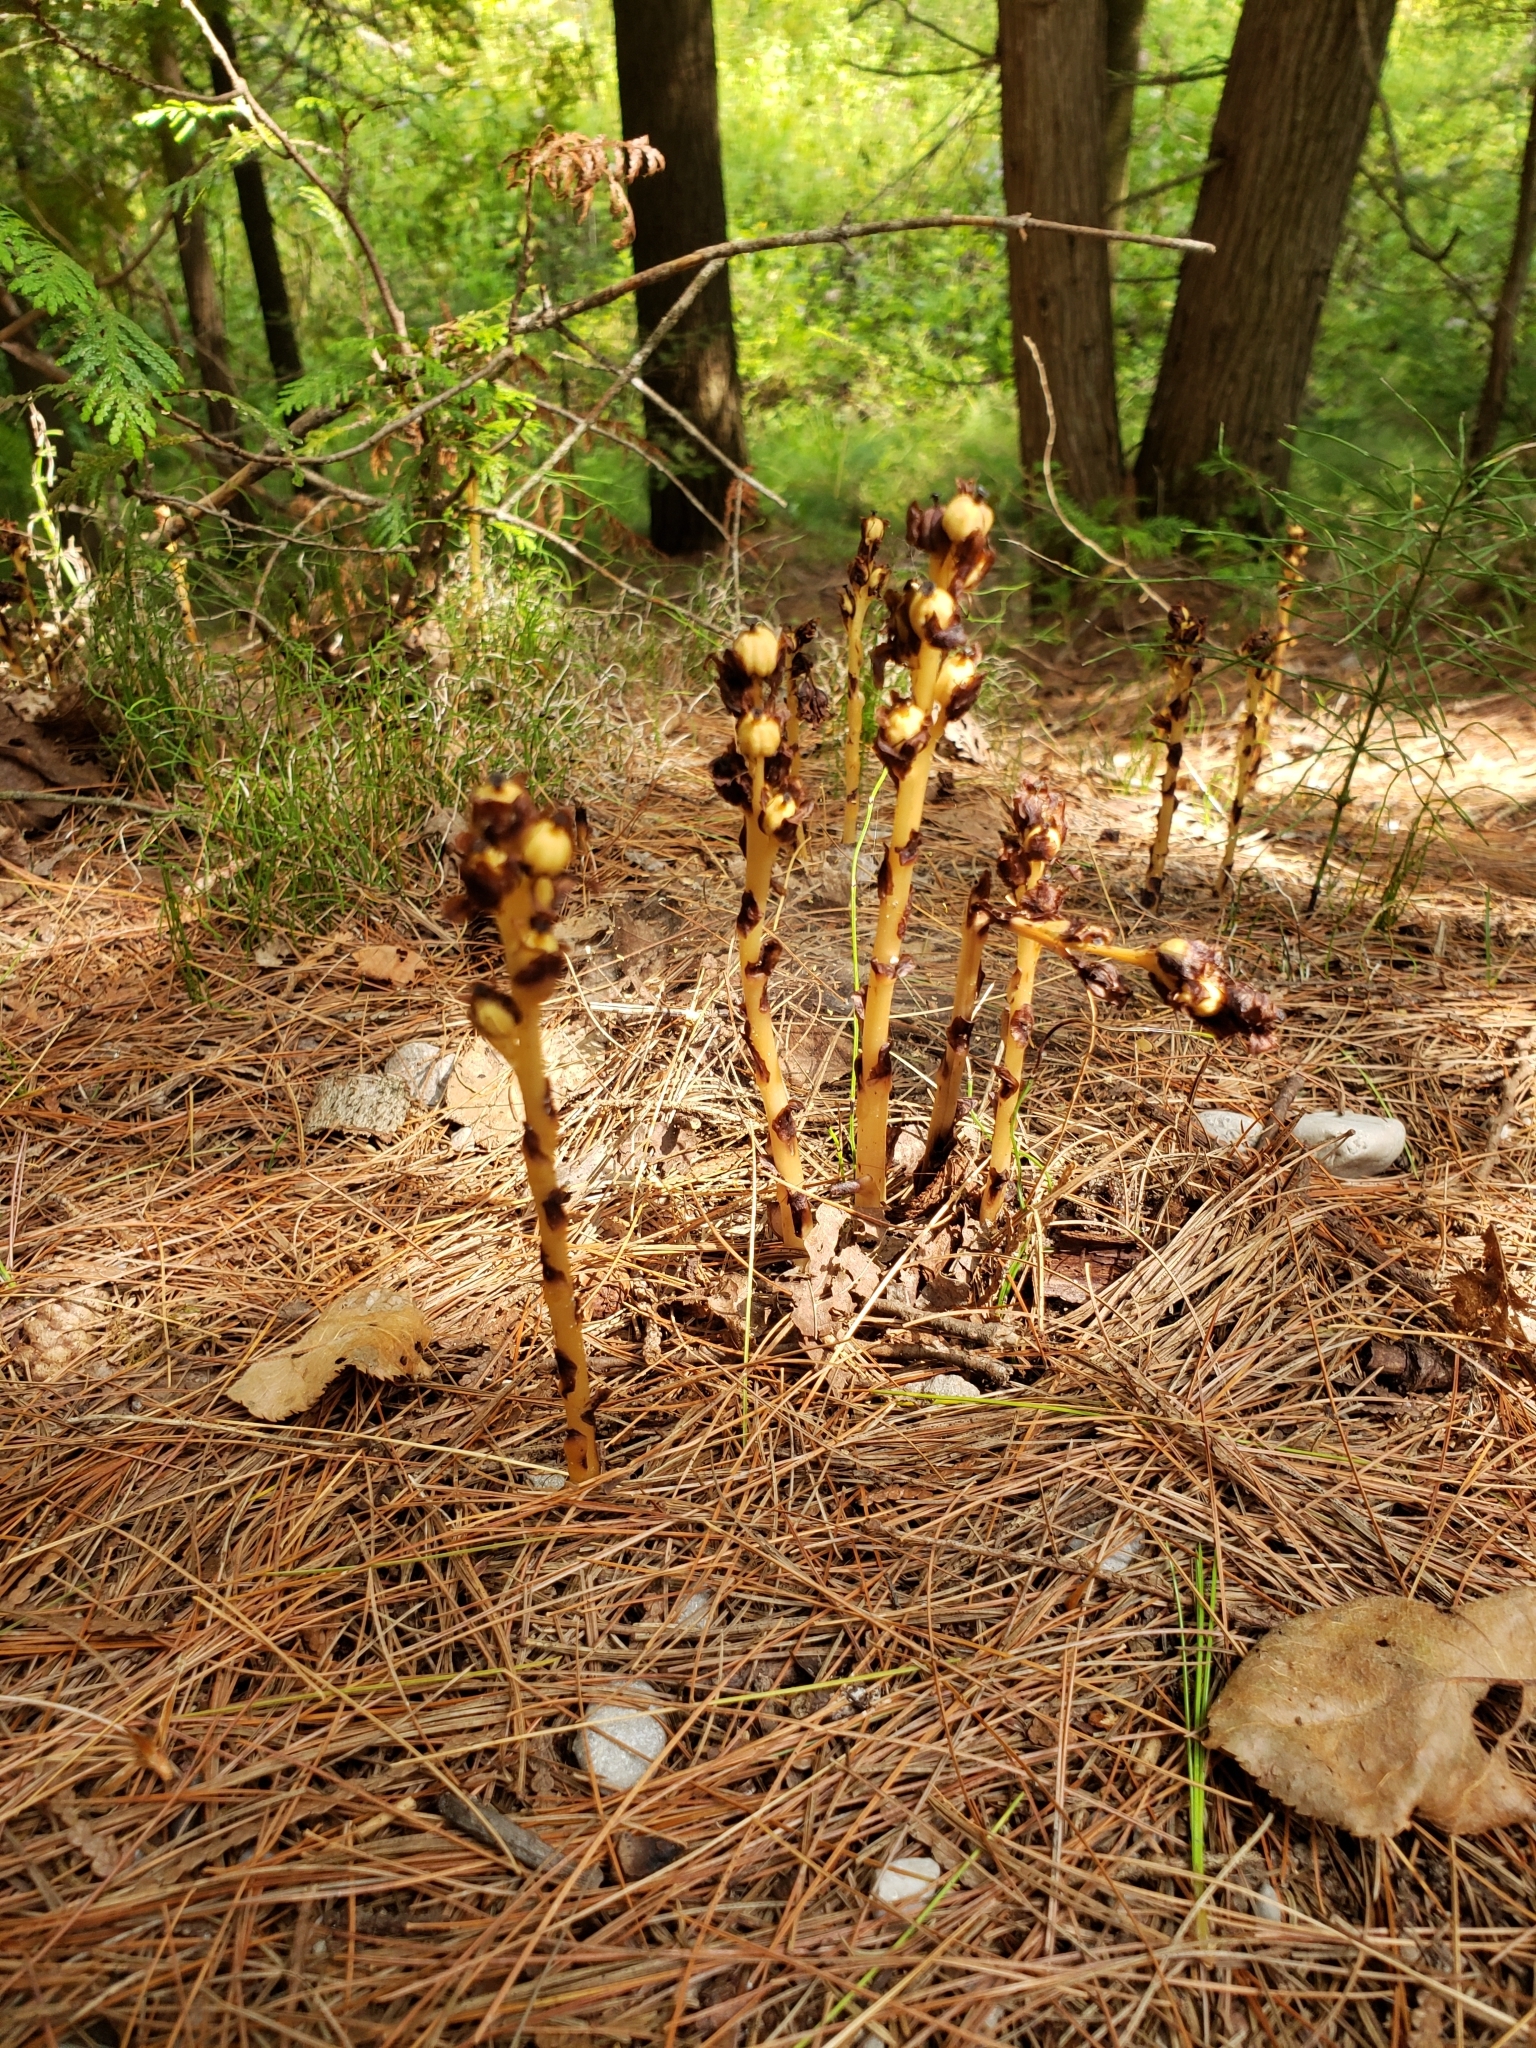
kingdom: Plantae
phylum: Tracheophyta
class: Magnoliopsida
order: Ericales
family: Ericaceae
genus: Hypopitys
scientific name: Hypopitys monotropa
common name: Yellow bird's-nest
